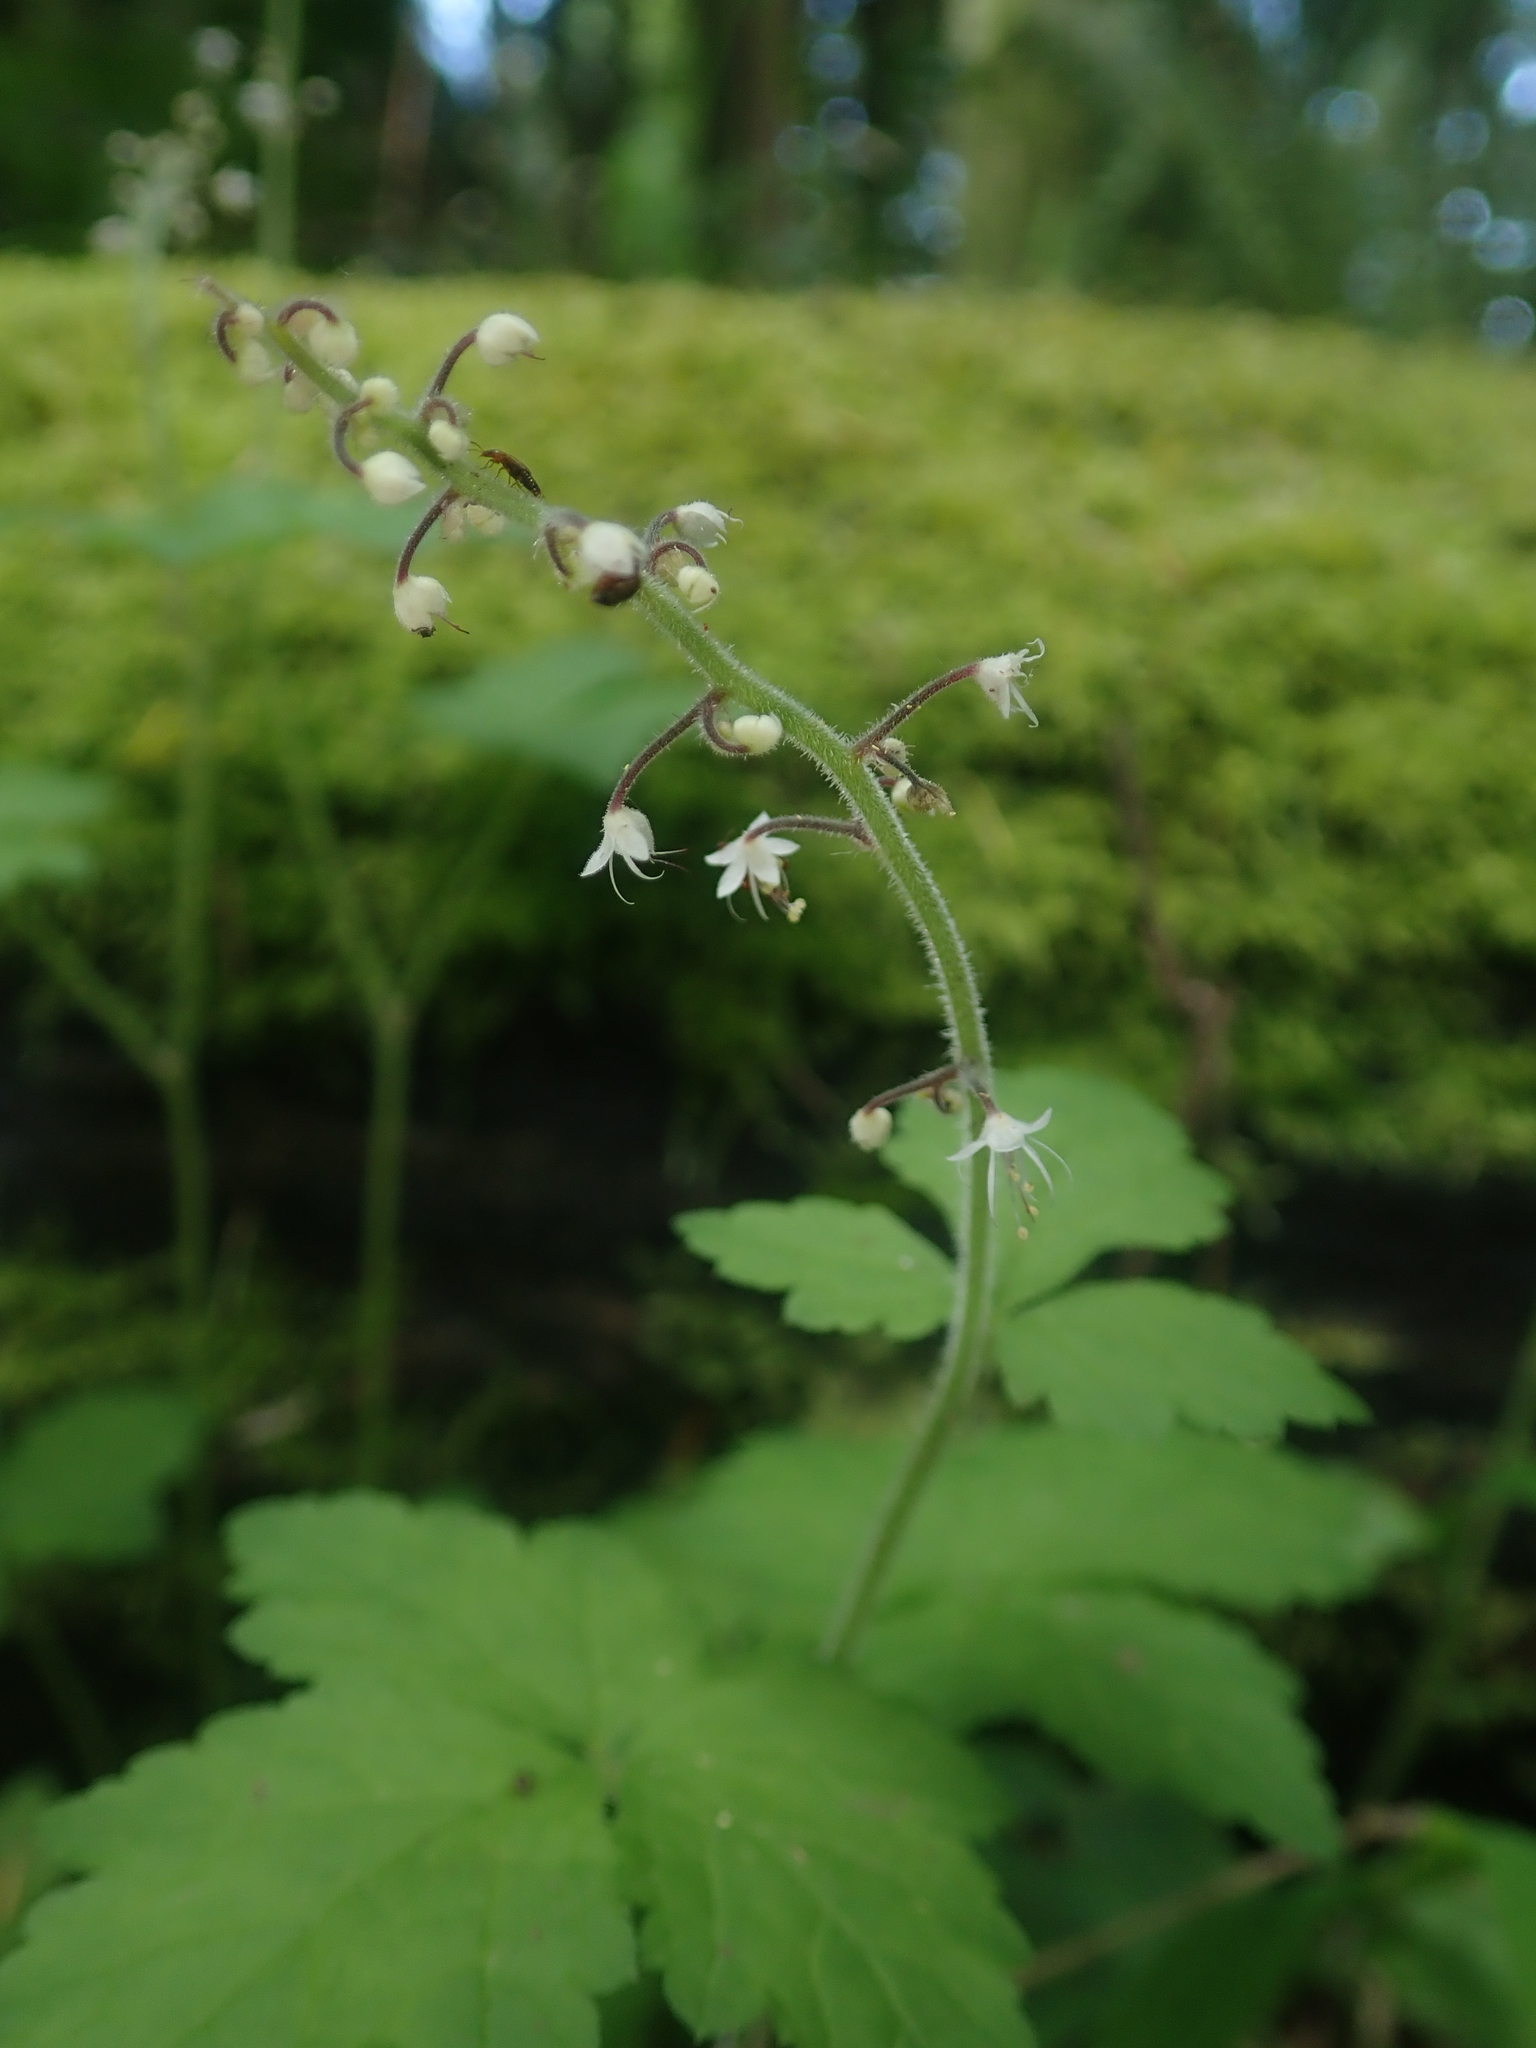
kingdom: Plantae
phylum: Tracheophyta
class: Magnoliopsida
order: Saxifragales
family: Saxifragaceae
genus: Tiarella
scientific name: Tiarella trifoliata
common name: Sugar-scoop
